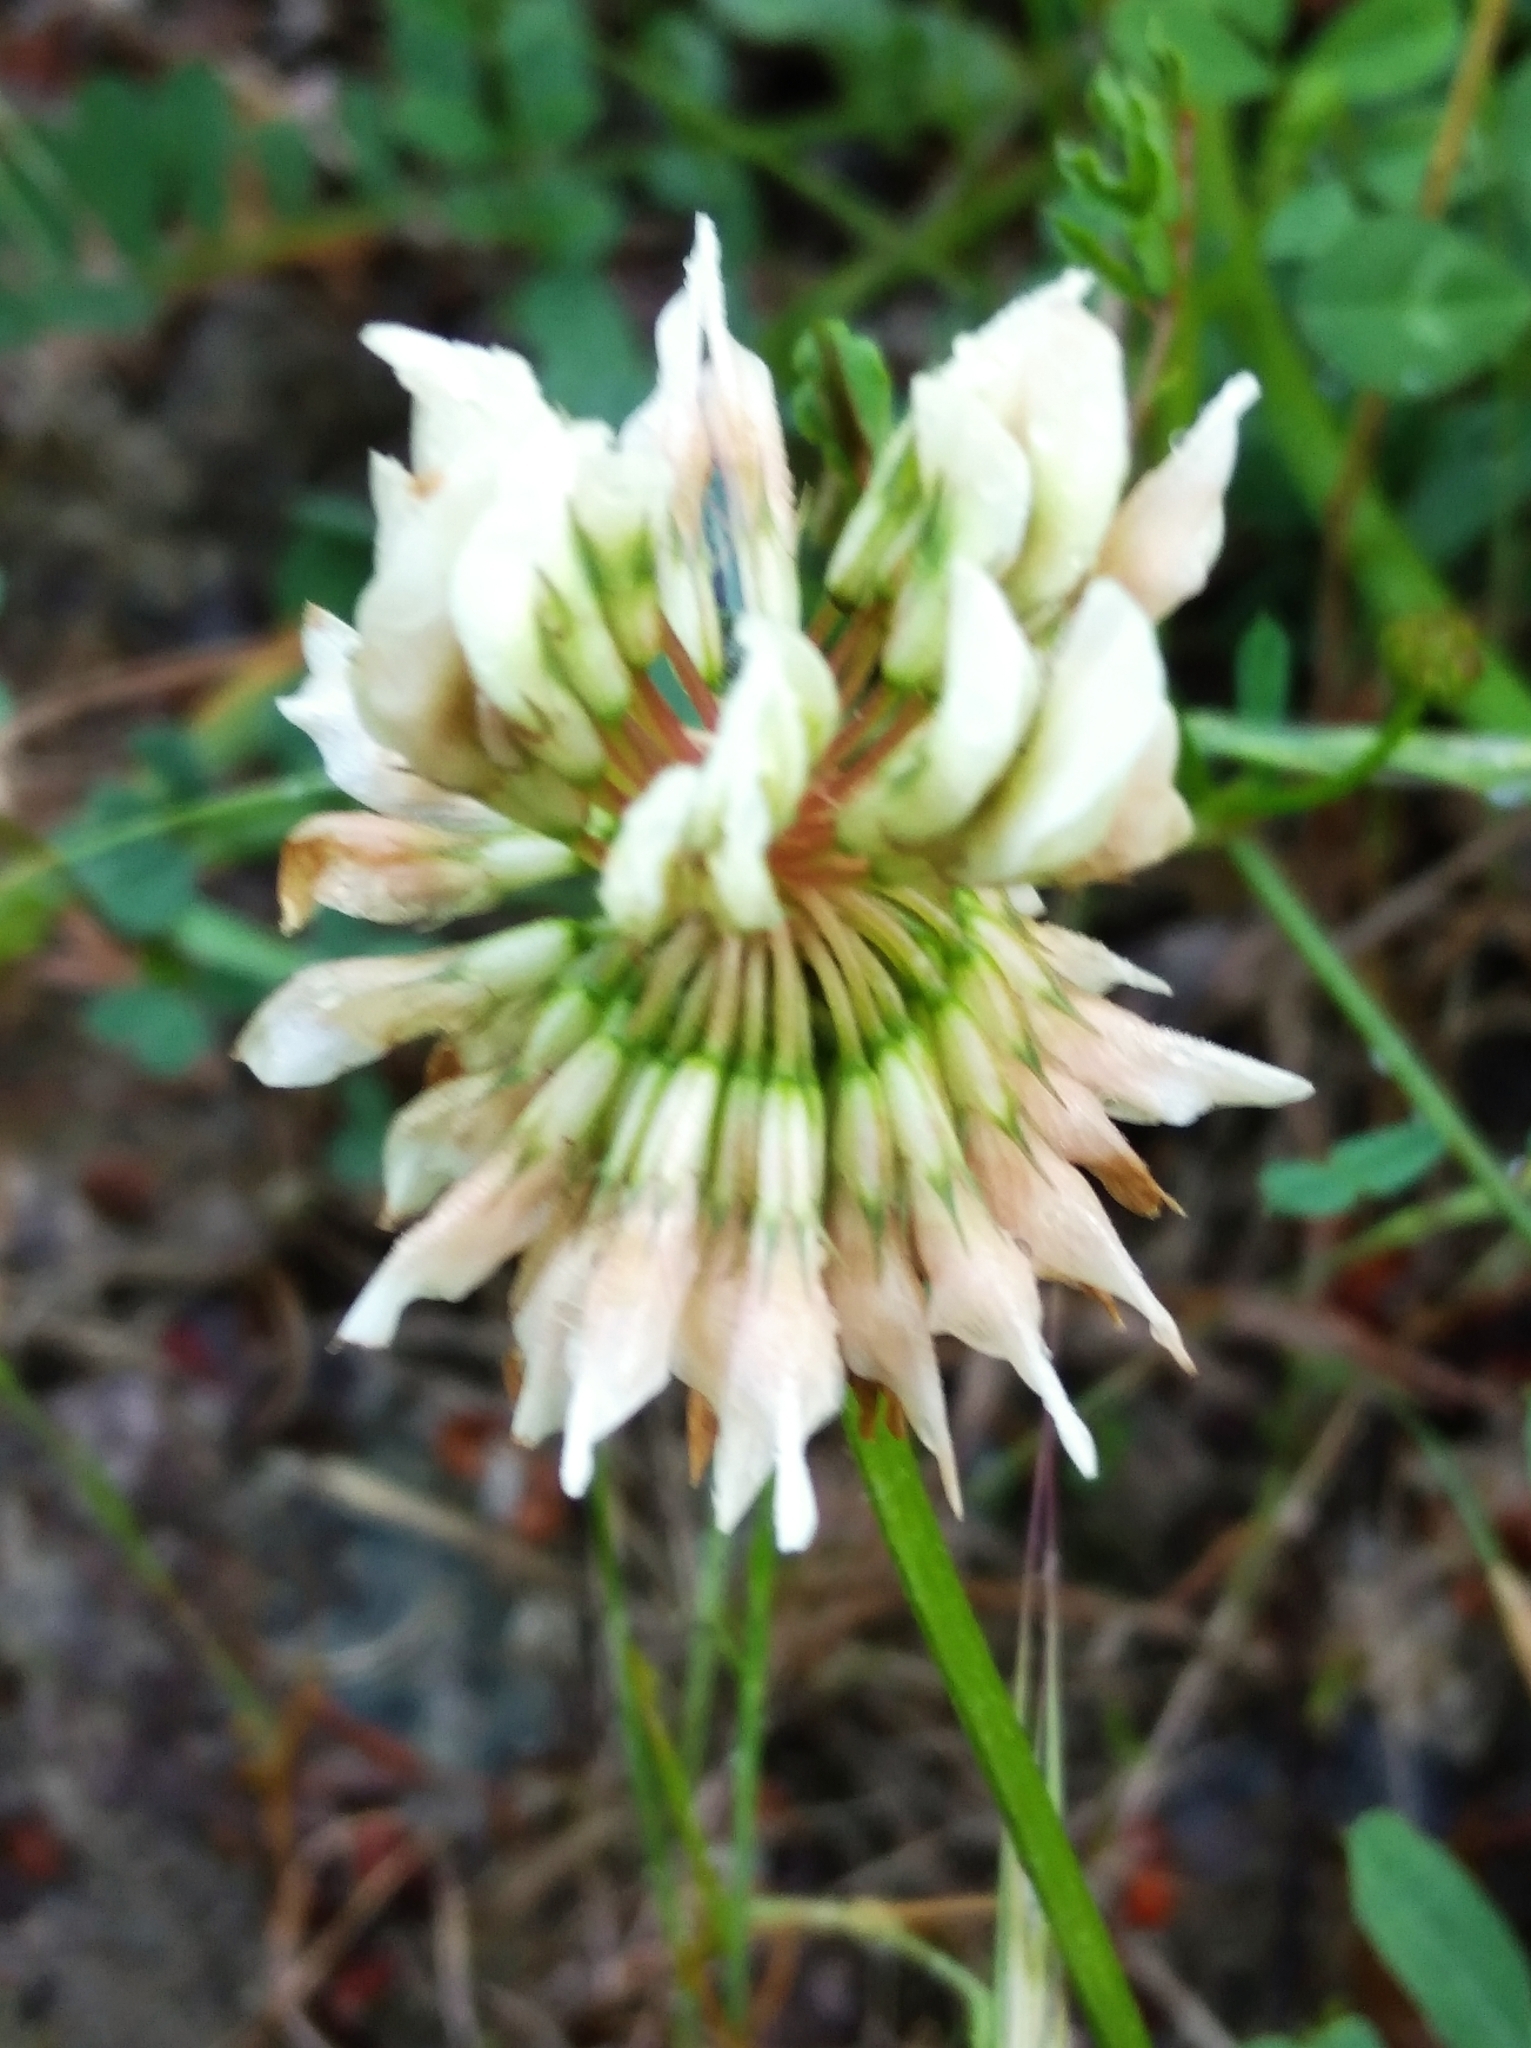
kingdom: Plantae
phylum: Tracheophyta
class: Magnoliopsida
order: Fabales
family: Fabaceae
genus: Trifolium
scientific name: Trifolium repens
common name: White clover
